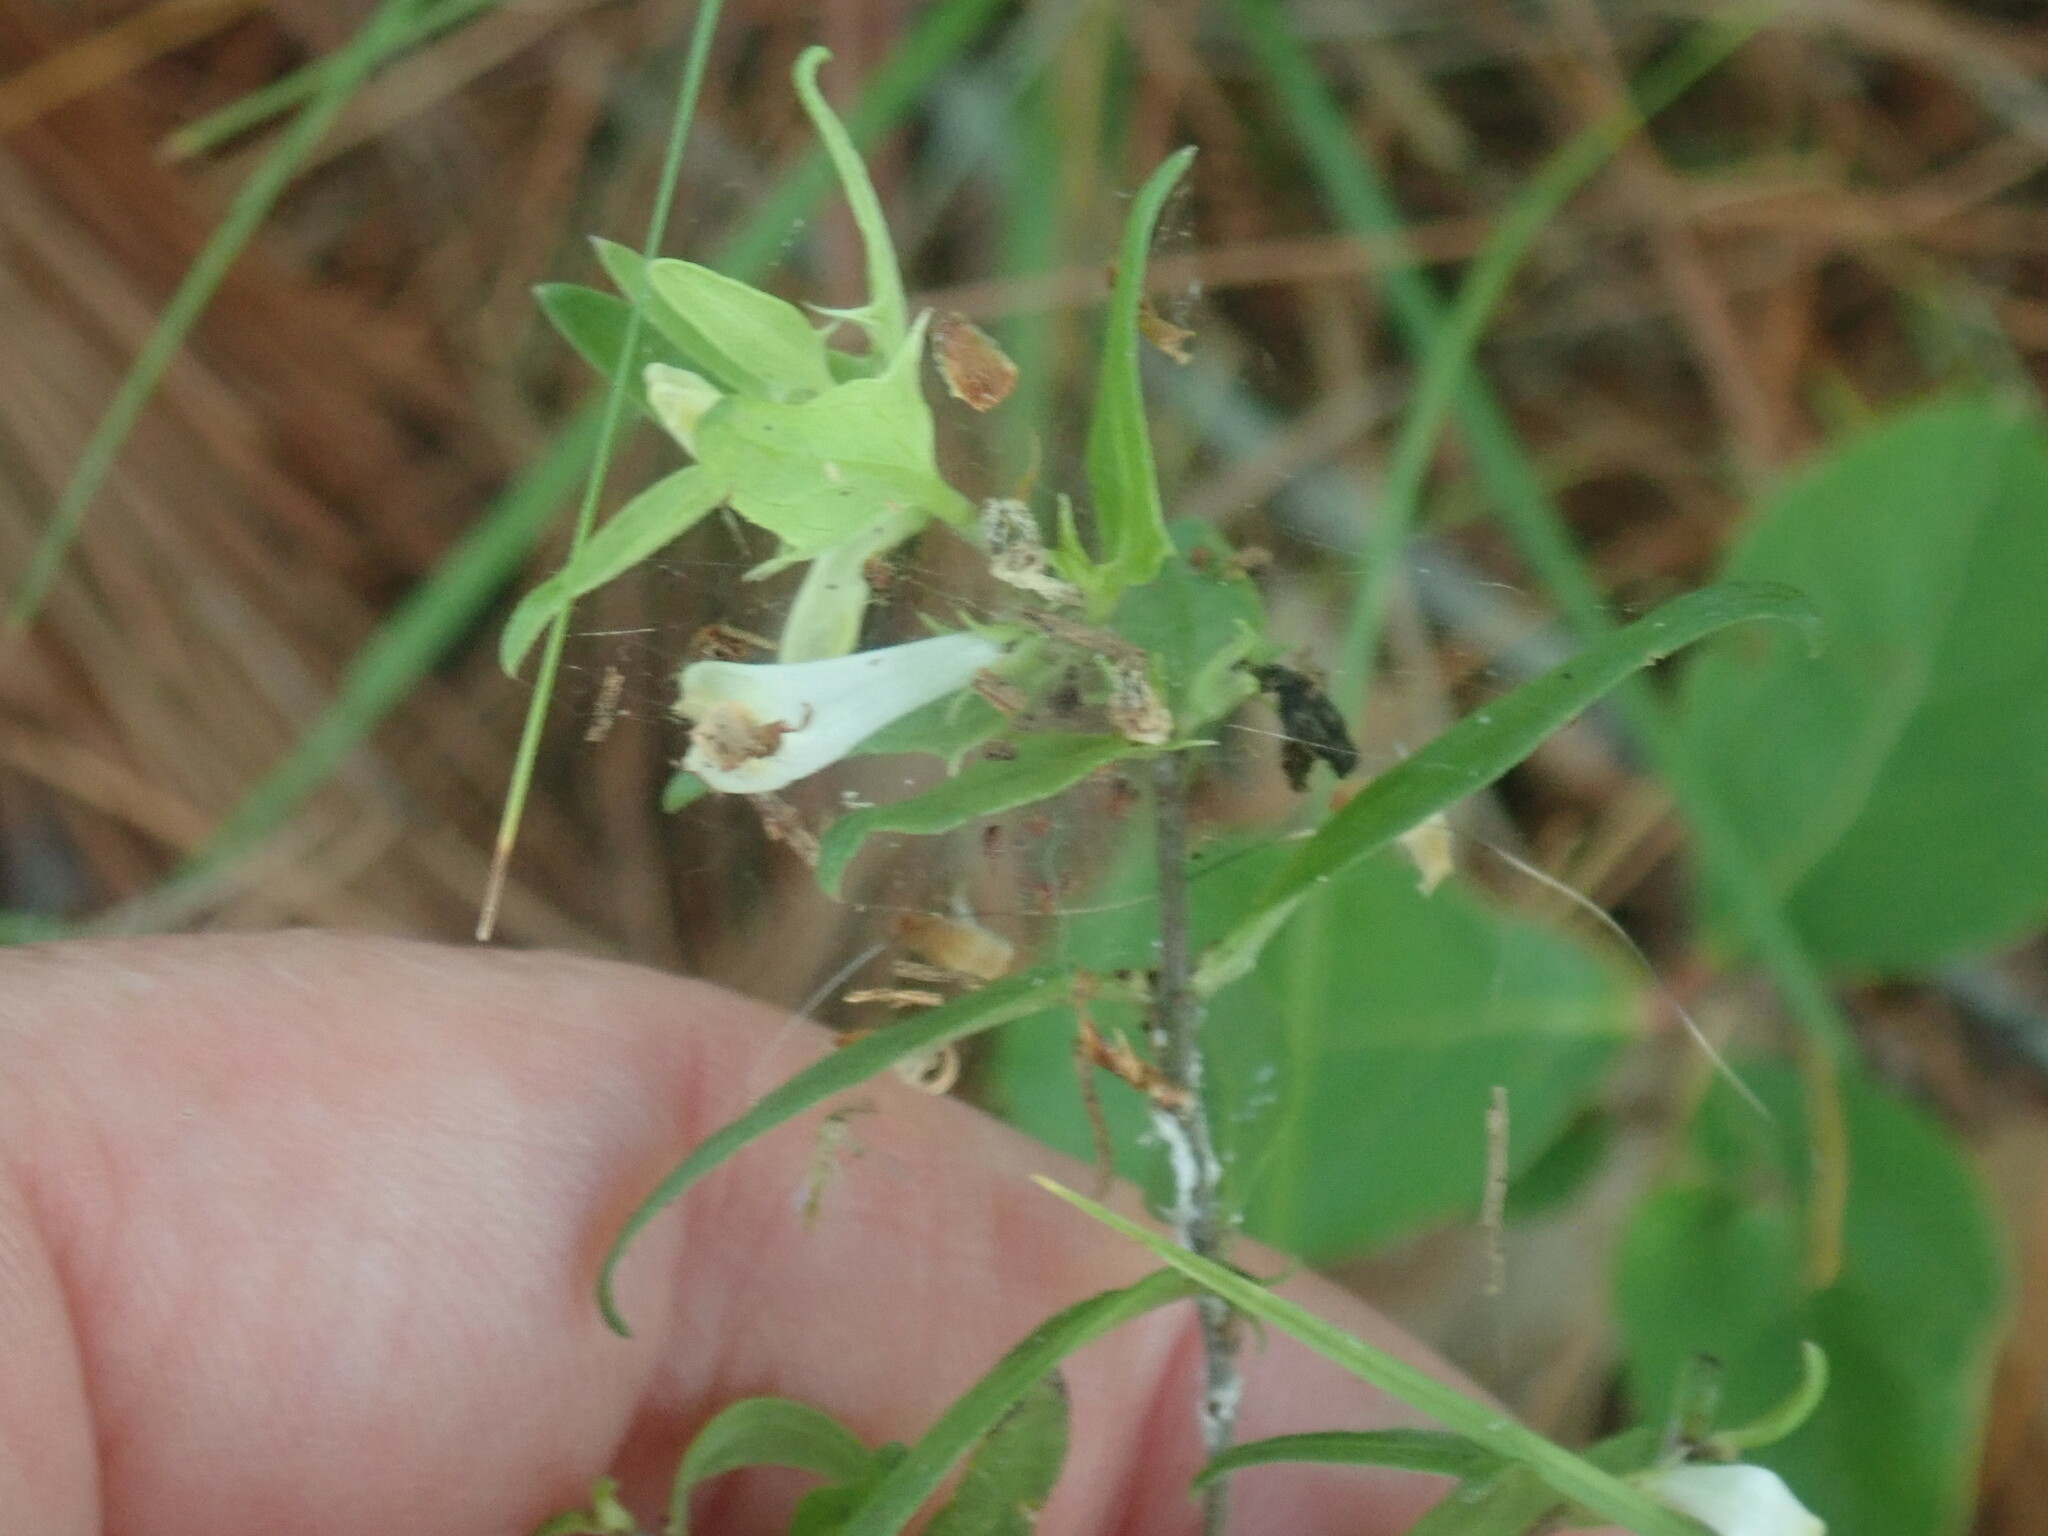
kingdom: Plantae
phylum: Tracheophyta
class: Magnoliopsida
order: Lamiales
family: Orobanchaceae
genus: Melampyrum
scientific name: Melampyrum lineare
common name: American cow-wheat
